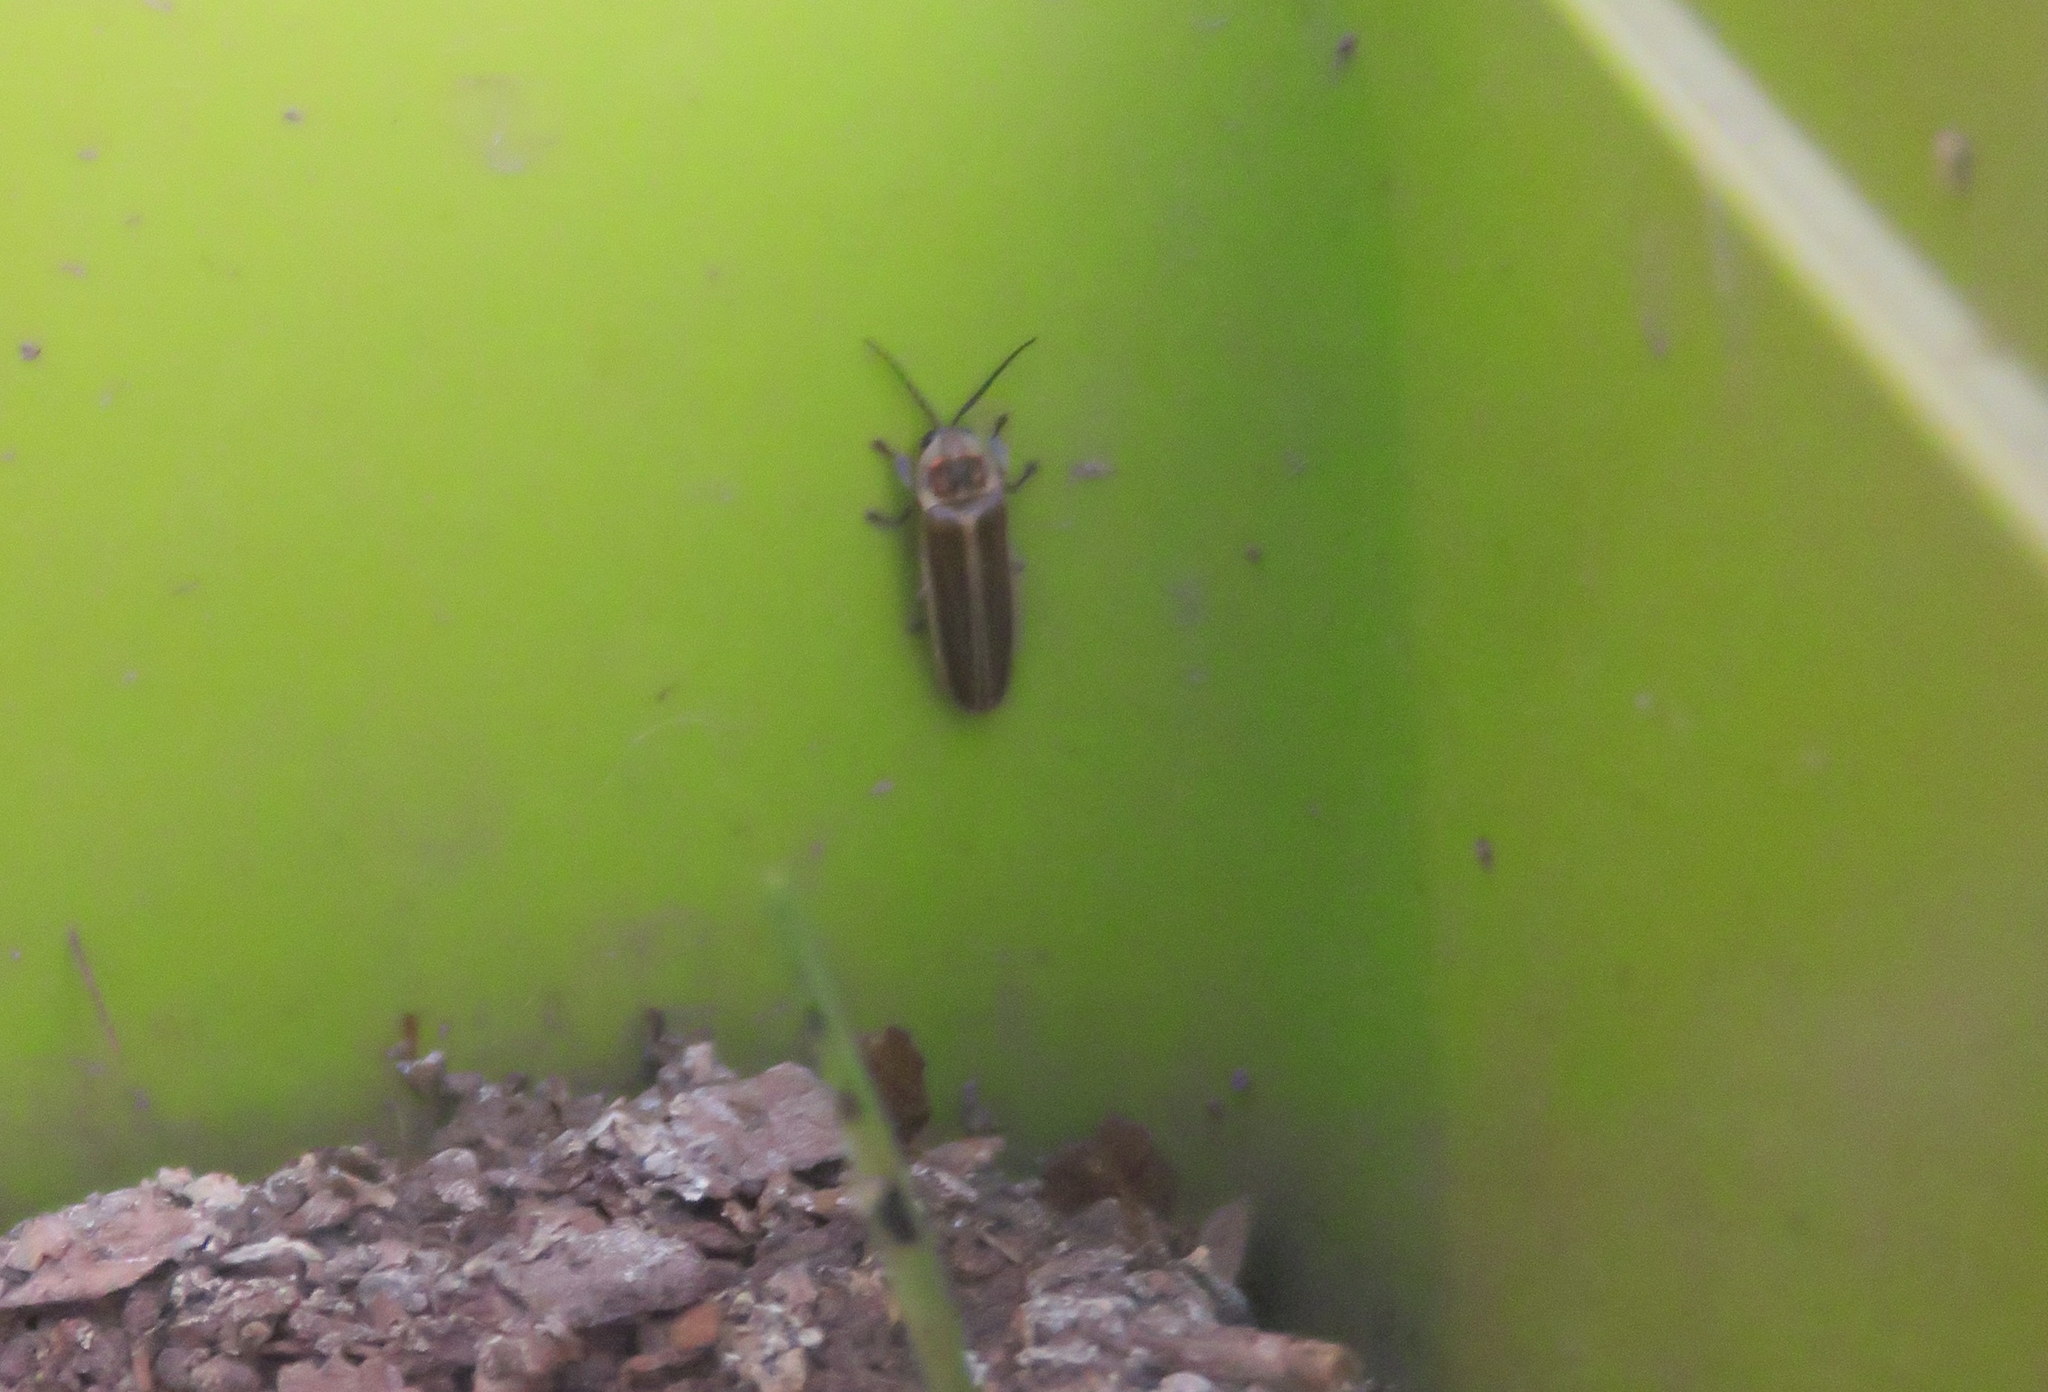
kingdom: Animalia
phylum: Arthropoda
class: Insecta
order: Coleoptera
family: Lampyridae
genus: Photinus
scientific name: Photinus signaticollis
